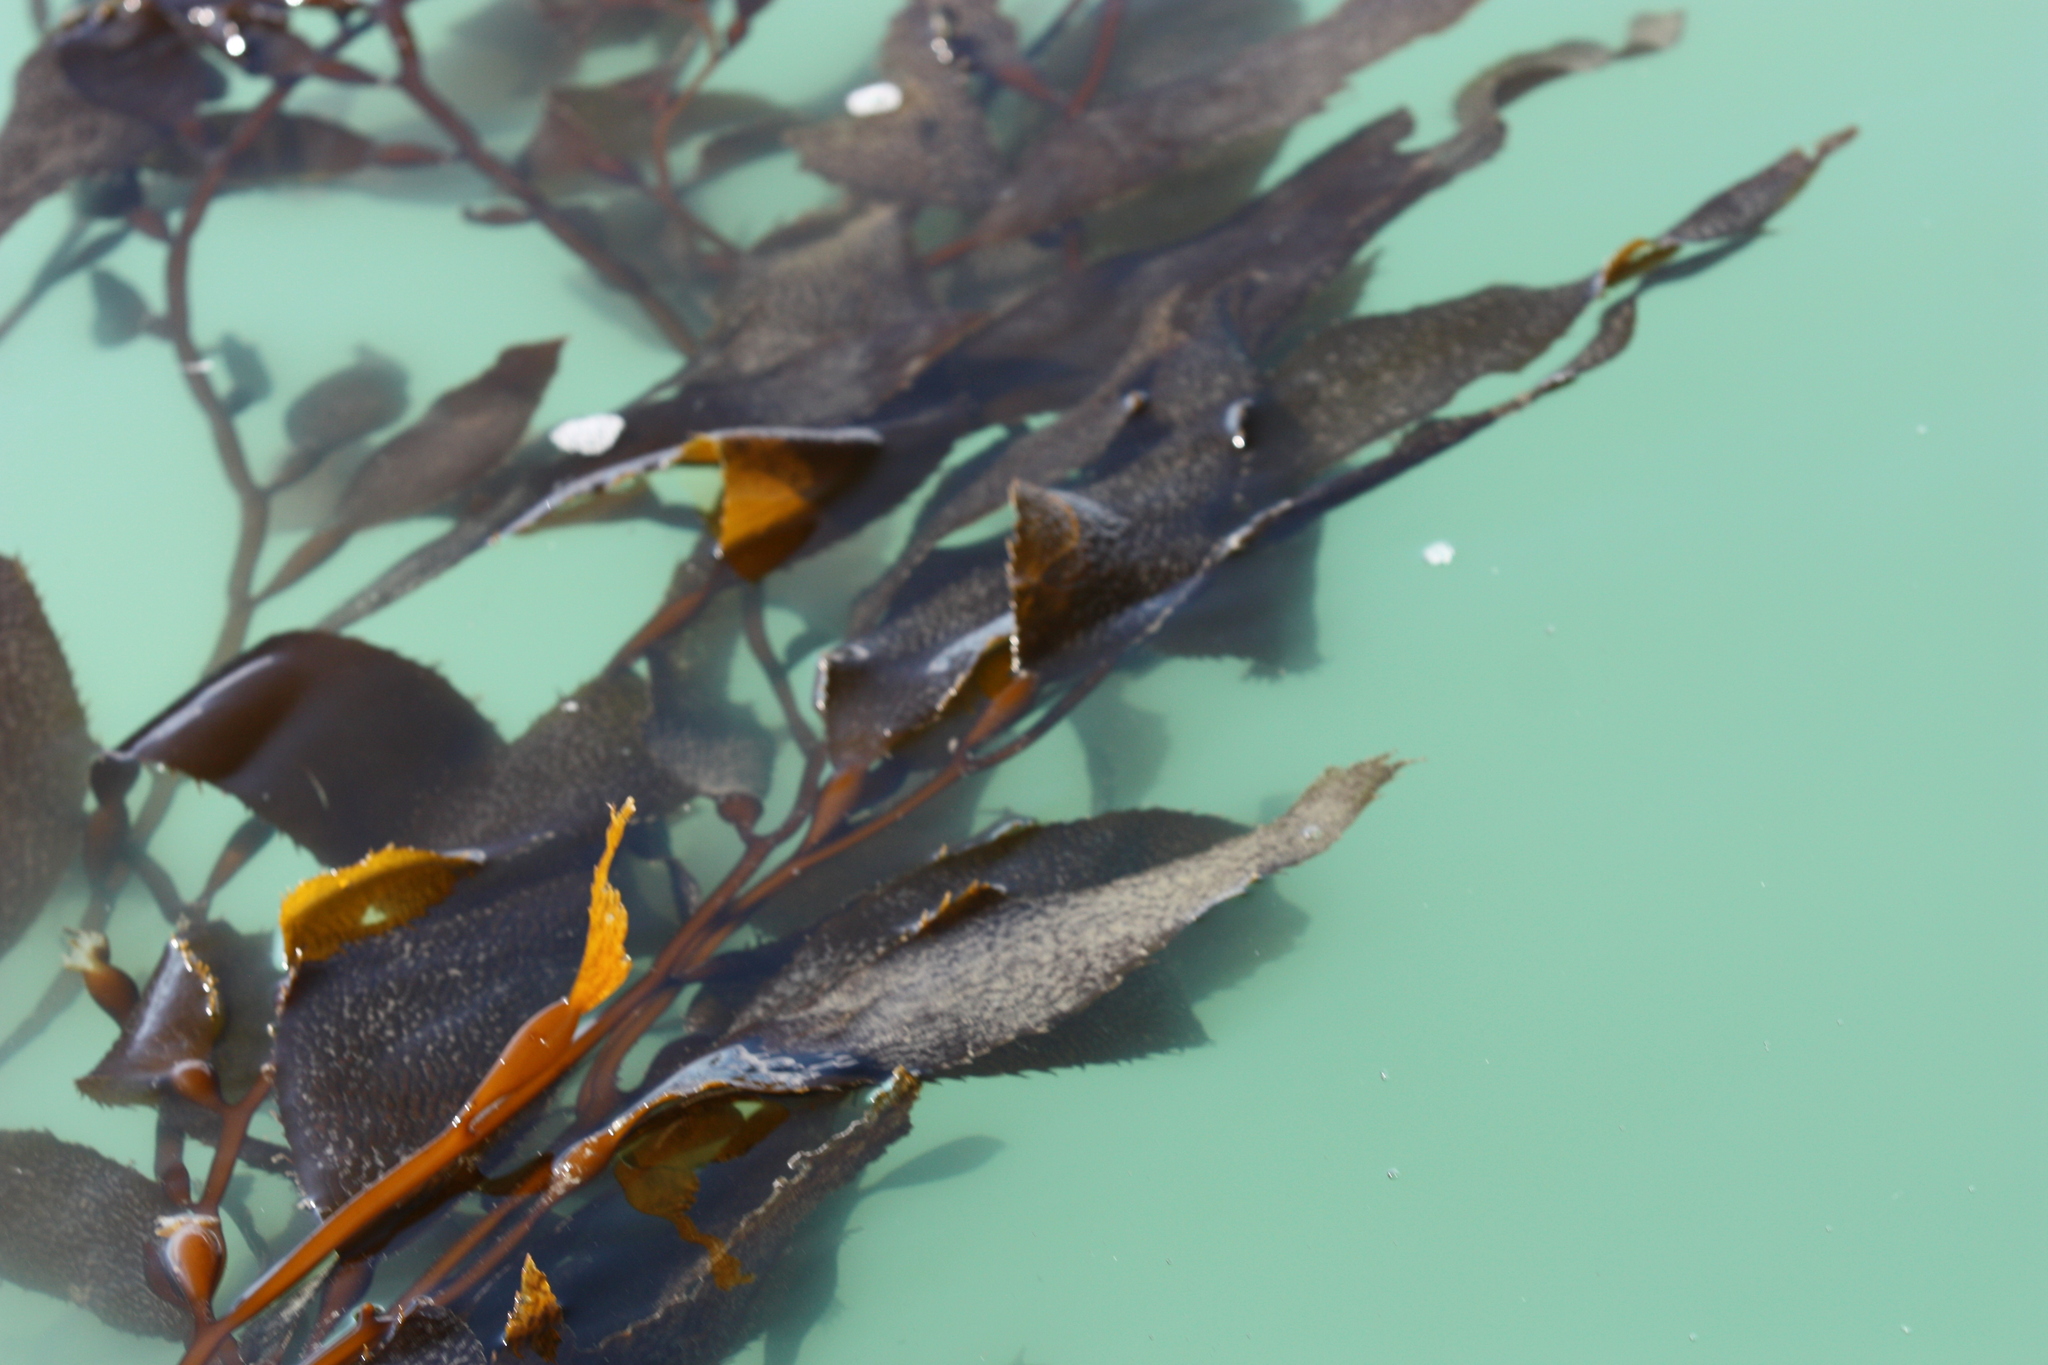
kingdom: Chromista
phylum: Ochrophyta
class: Phaeophyceae
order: Laminariales
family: Laminariaceae
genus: Macrocystis
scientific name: Macrocystis pyrifera
